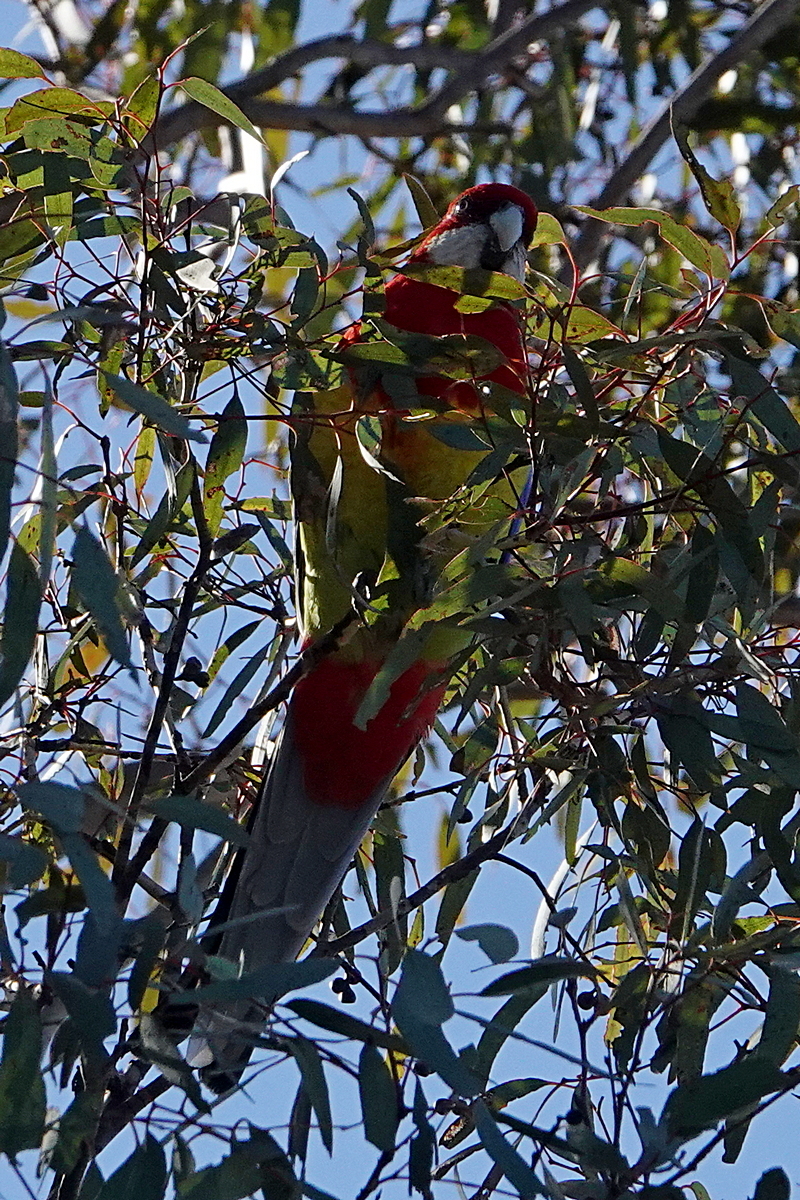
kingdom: Animalia
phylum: Chordata
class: Aves
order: Psittaciformes
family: Psittacidae
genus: Platycercus
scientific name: Platycercus eximius
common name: Eastern rosella
